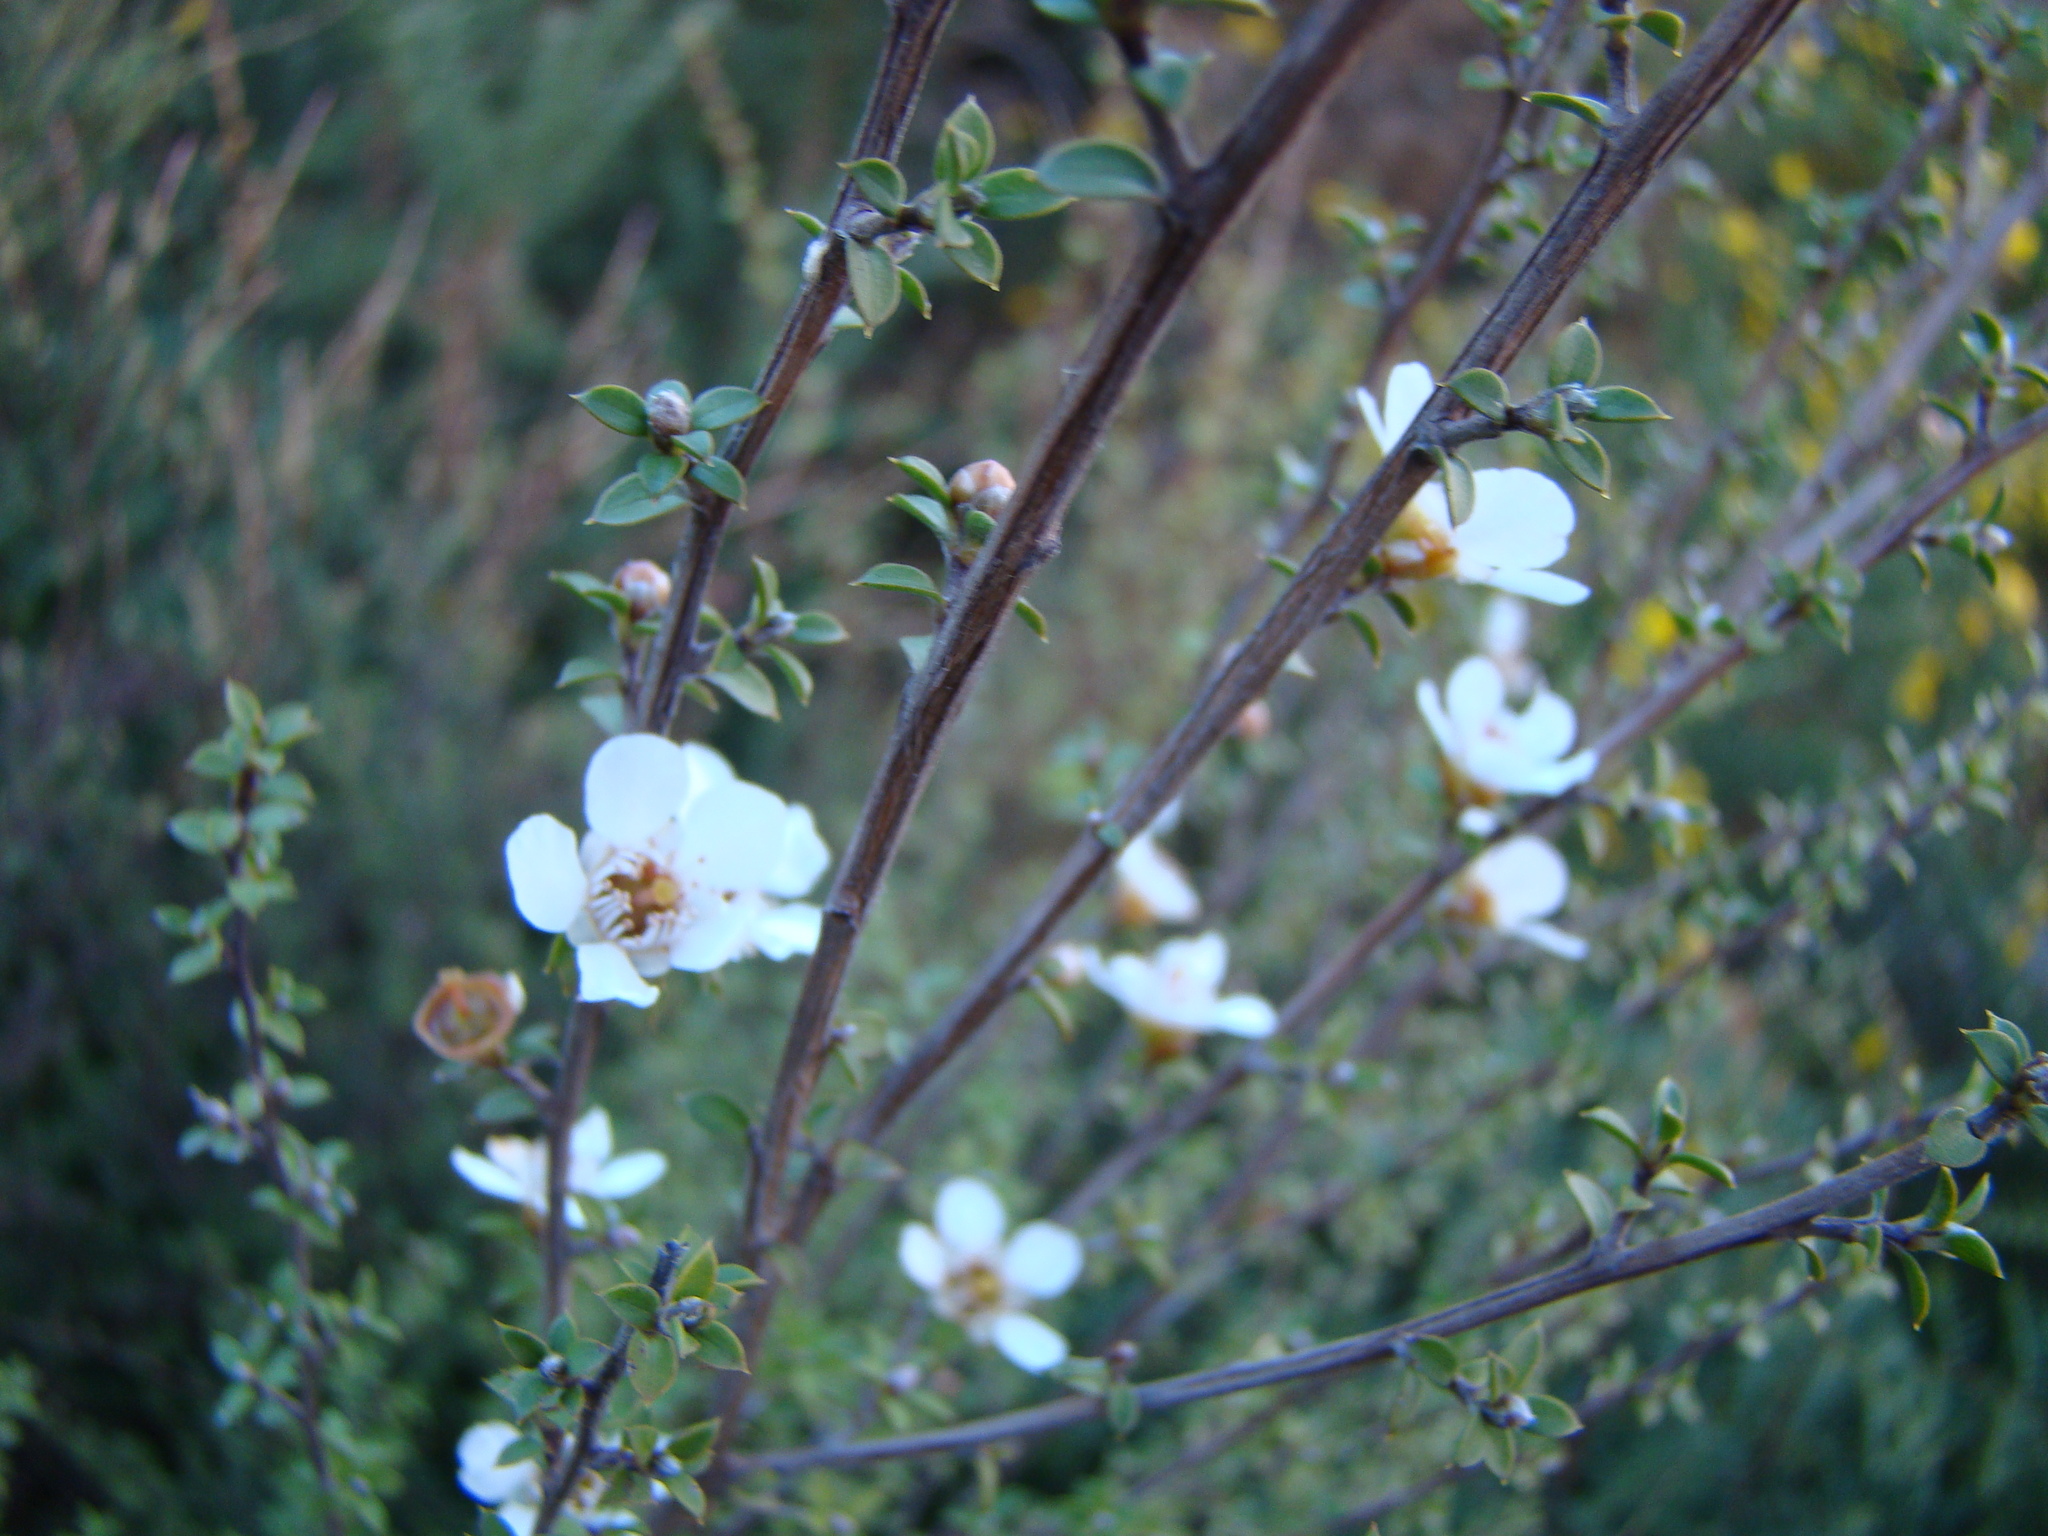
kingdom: Plantae
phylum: Tracheophyta
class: Magnoliopsida
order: Myrtales
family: Myrtaceae
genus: Leptospermum
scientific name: Leptospermum scoparium
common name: Broom tea-tree
